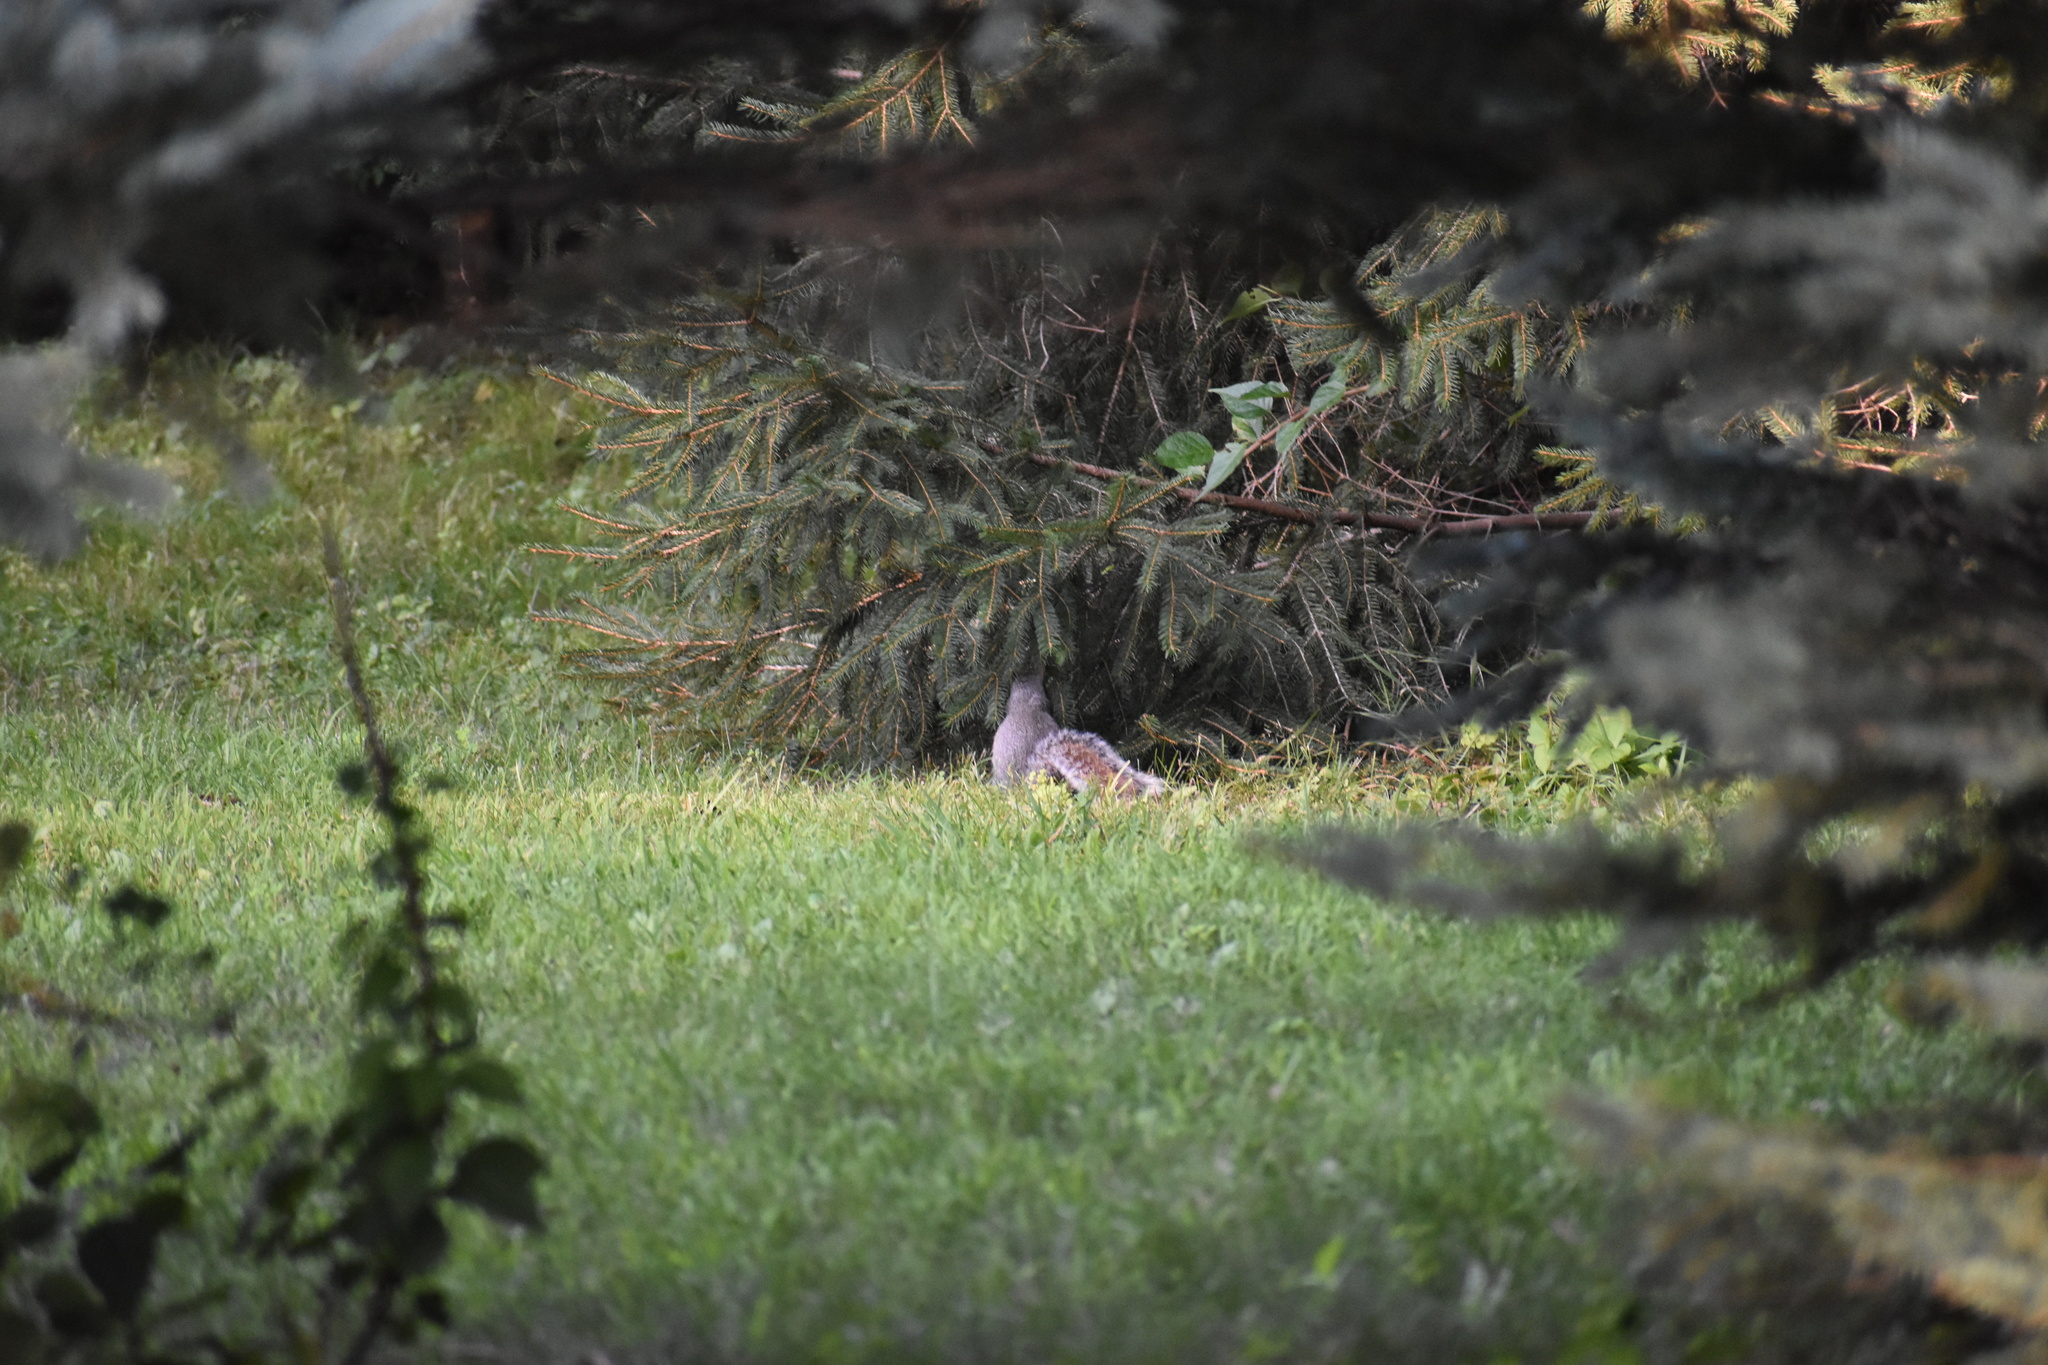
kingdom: Animalia
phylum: Chordata
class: Mammalia
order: Rodentia
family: Sciuridae
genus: Sciurus
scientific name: Sciurus carolinensis
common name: Eastern gray squirrel
